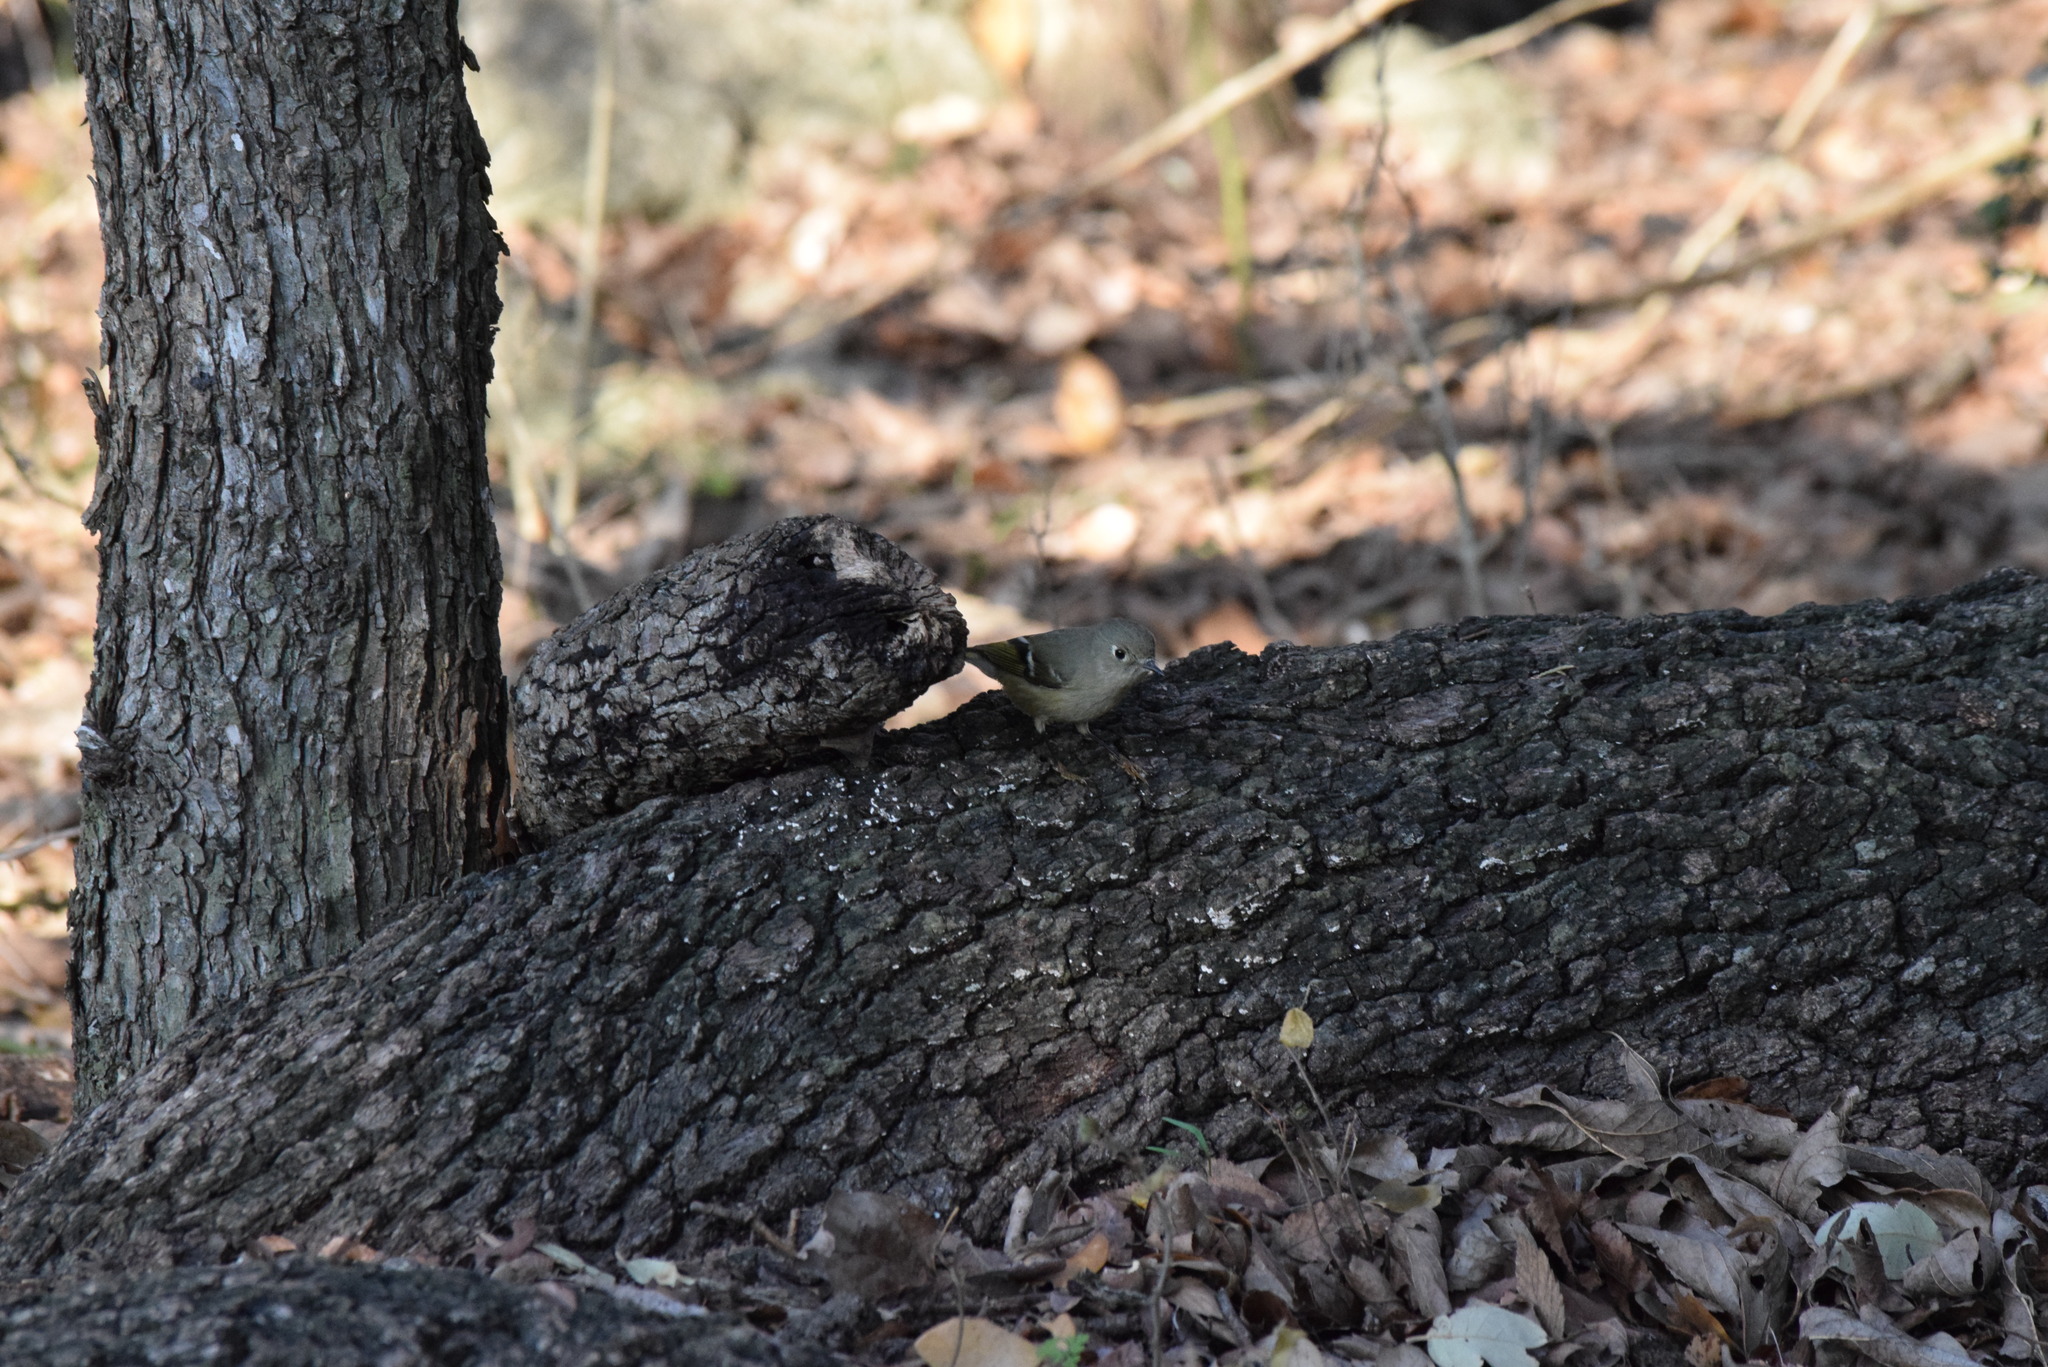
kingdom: Animalia
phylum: Chordata
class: Aves
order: Passeriformes
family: Regulidae
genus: Regulus
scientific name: Regulus calendula
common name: Ruby-crowned kinglet
